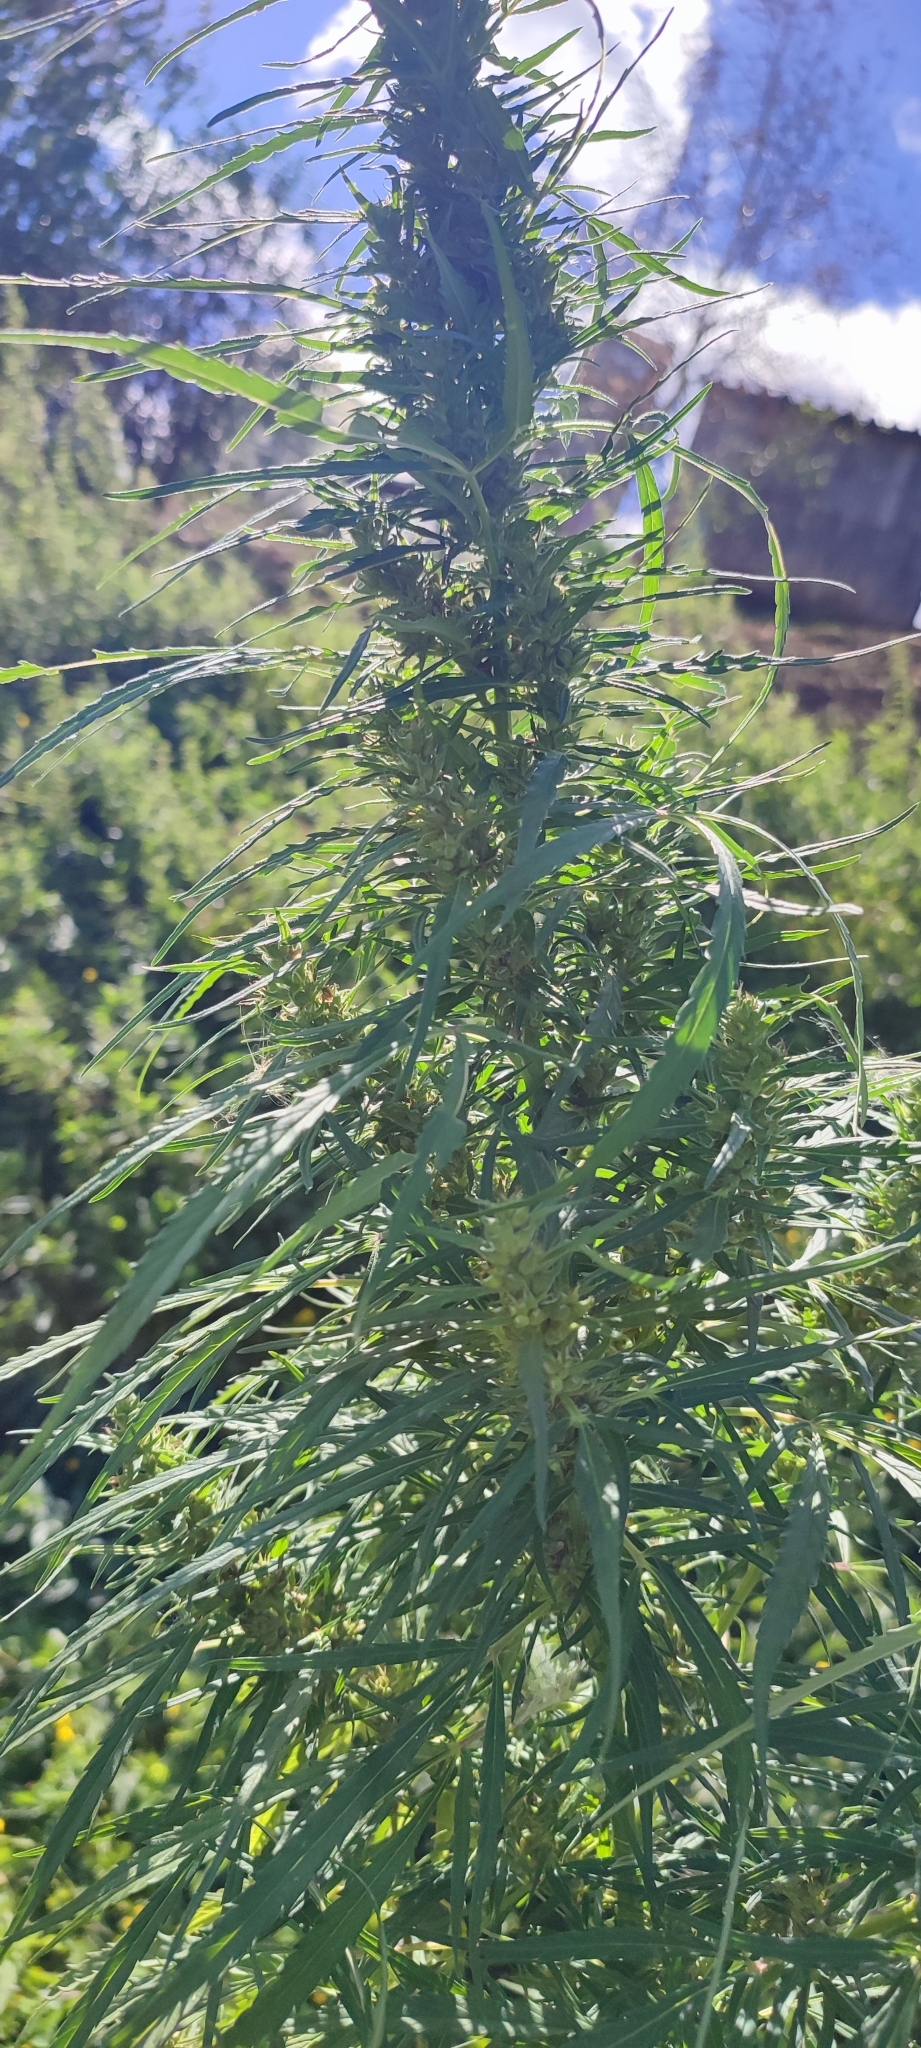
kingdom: Plantae
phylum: Tracheophyta
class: Magnoliopsida
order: Rosales
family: Cannabaceae
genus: Cannabis
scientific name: Cannabis sativa
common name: Hemp
